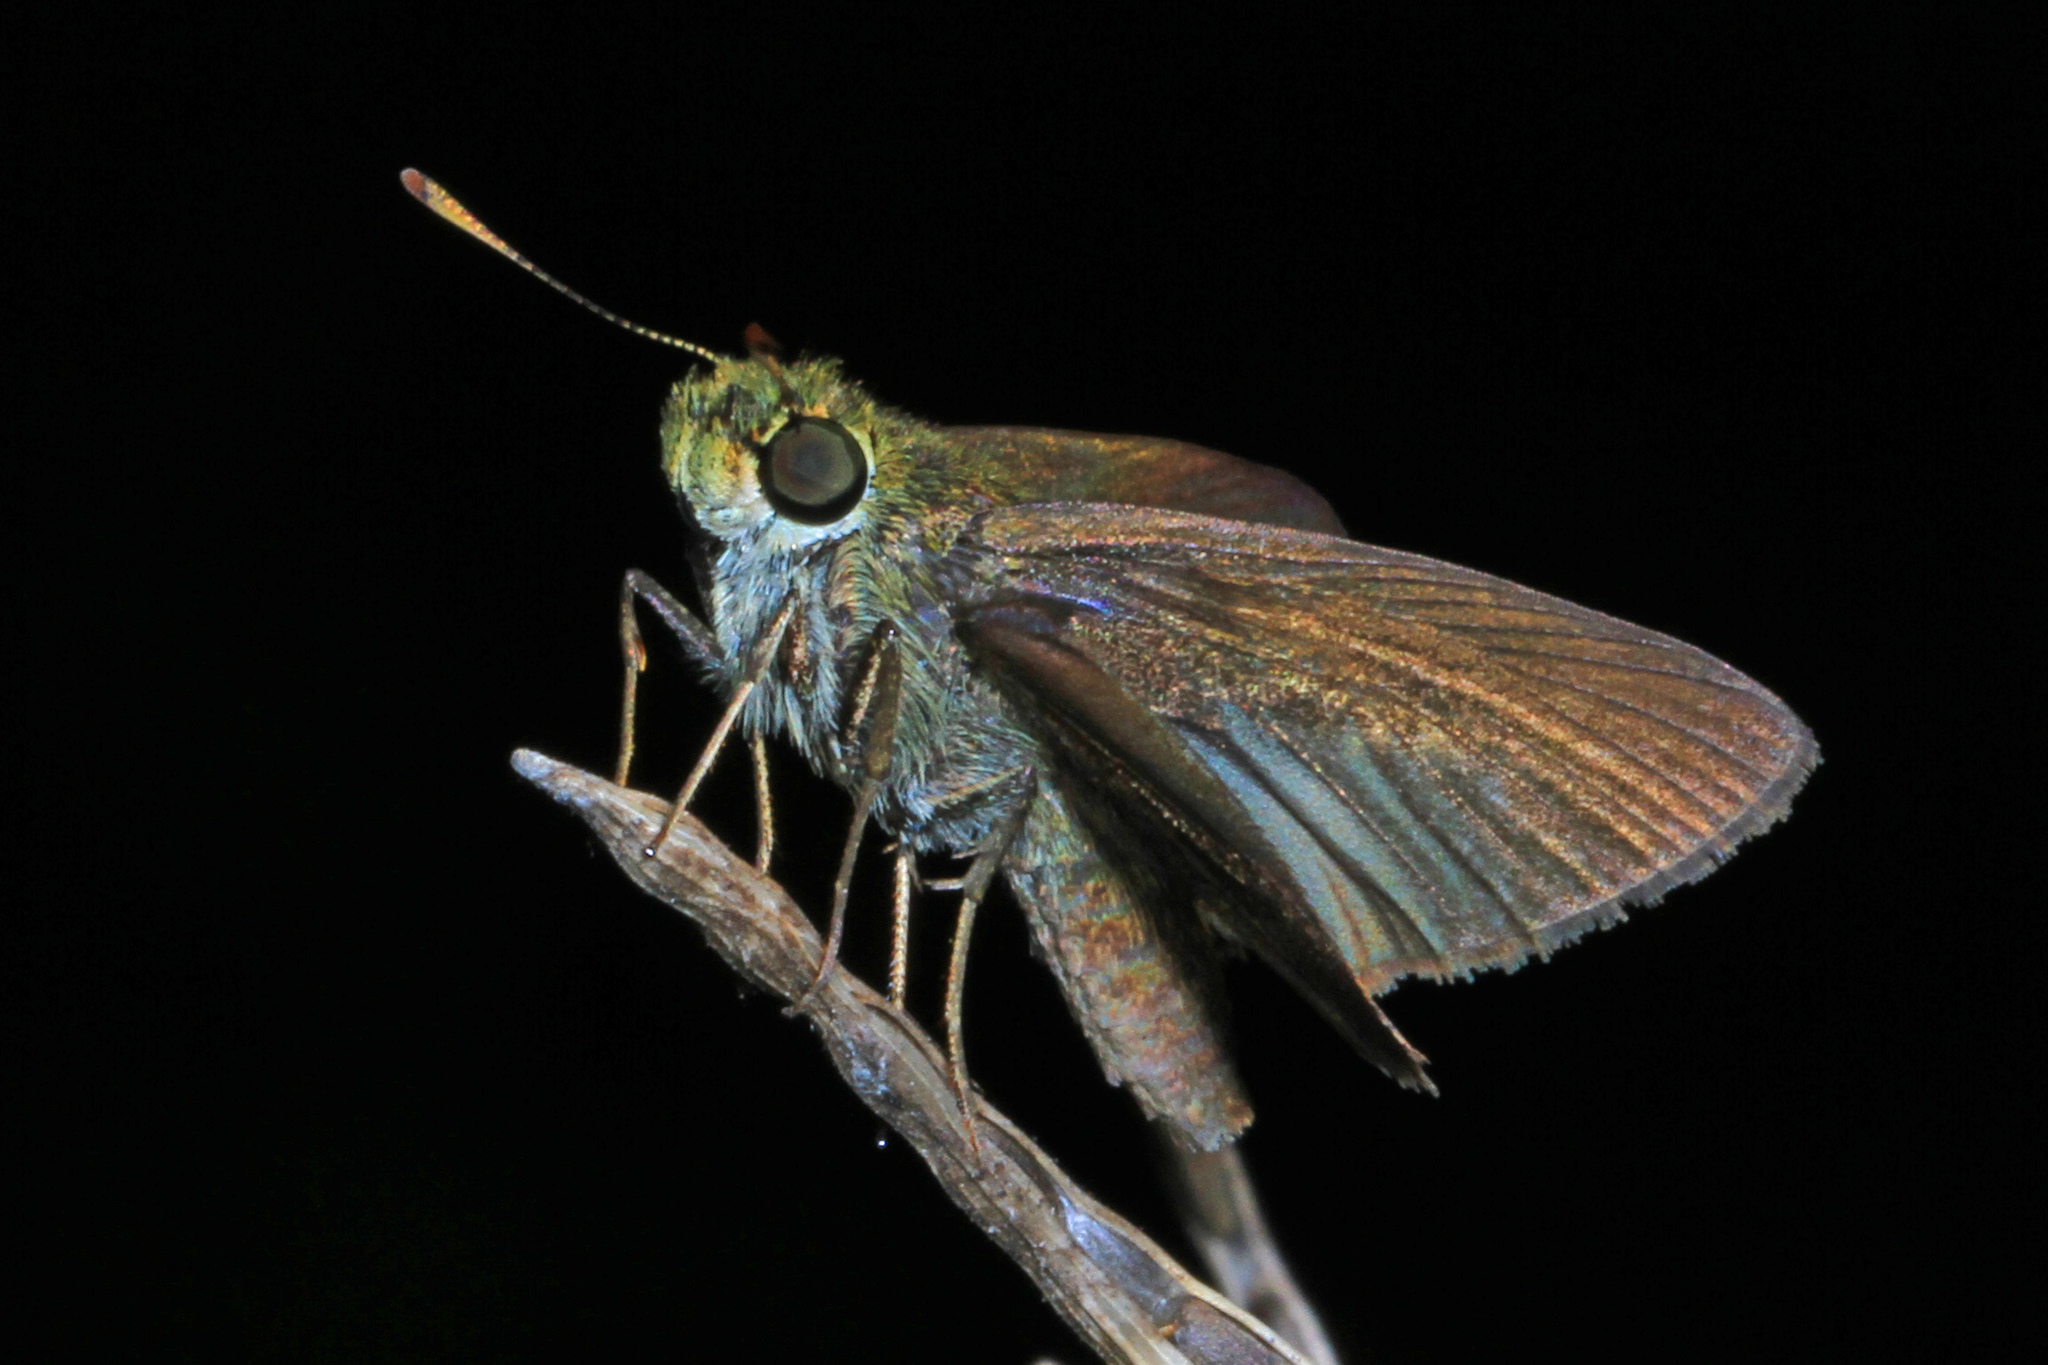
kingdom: Animalia
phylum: Arthropoda
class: Insecta
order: Lepidoptera
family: Hesperiidae
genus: Euphyes
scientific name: Euphyes vestris
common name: Dun skipper
